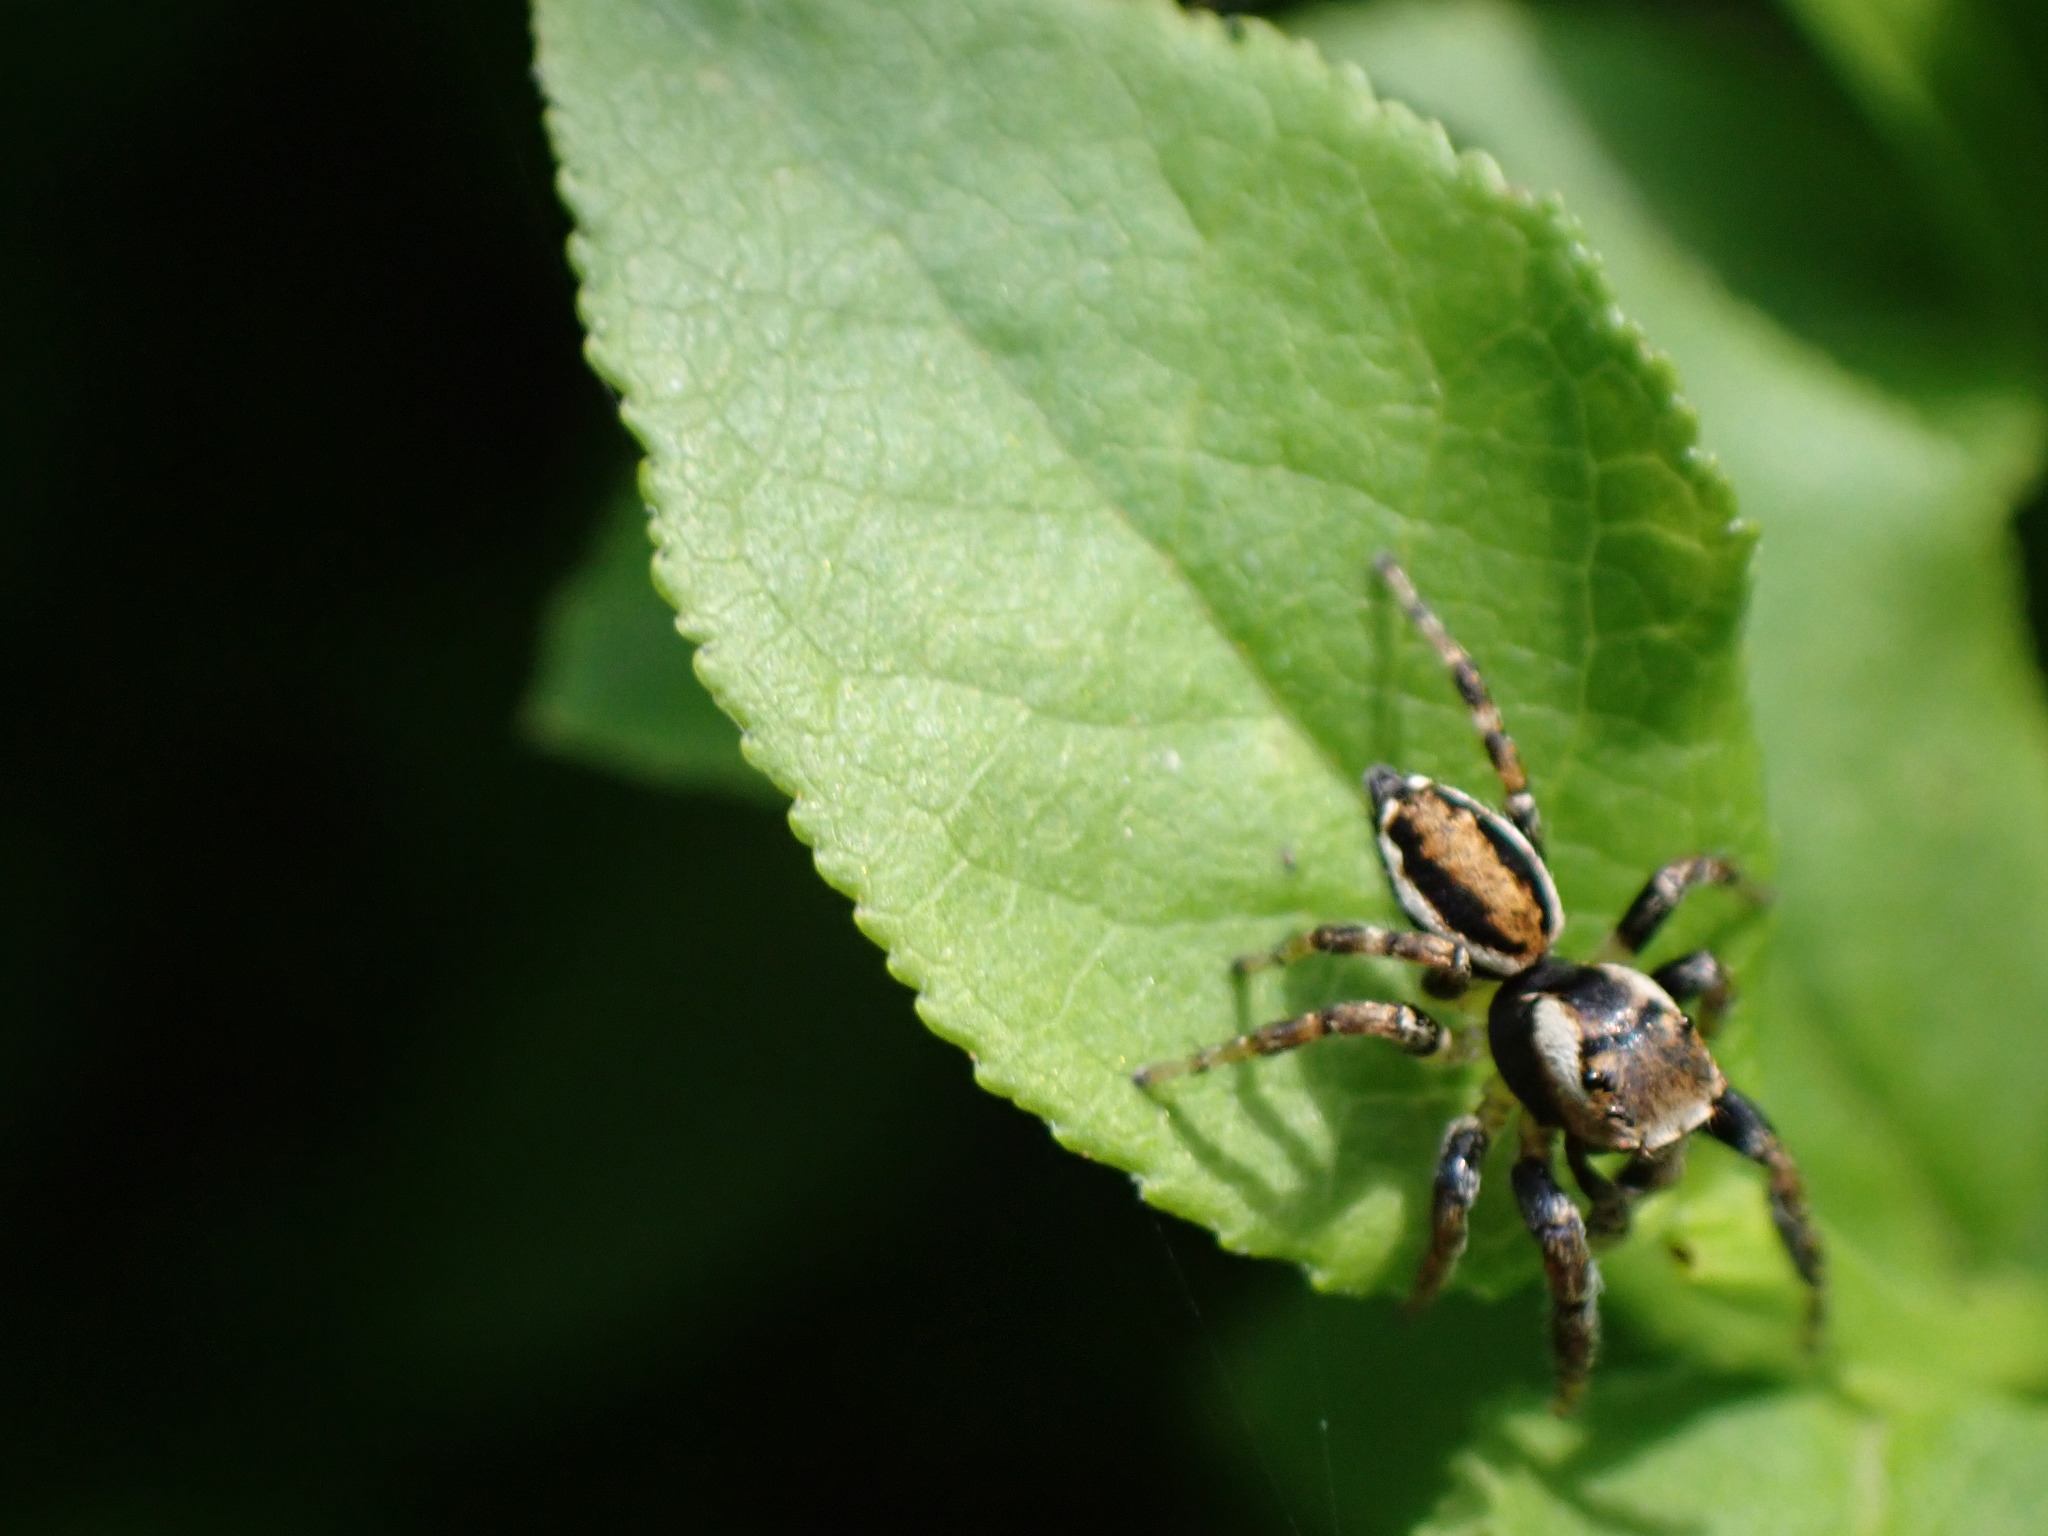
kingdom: Animalia
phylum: Arthropoda
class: Arachnida
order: Araneae
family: Salticidae
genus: Evarcha
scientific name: Evarcha falcata
